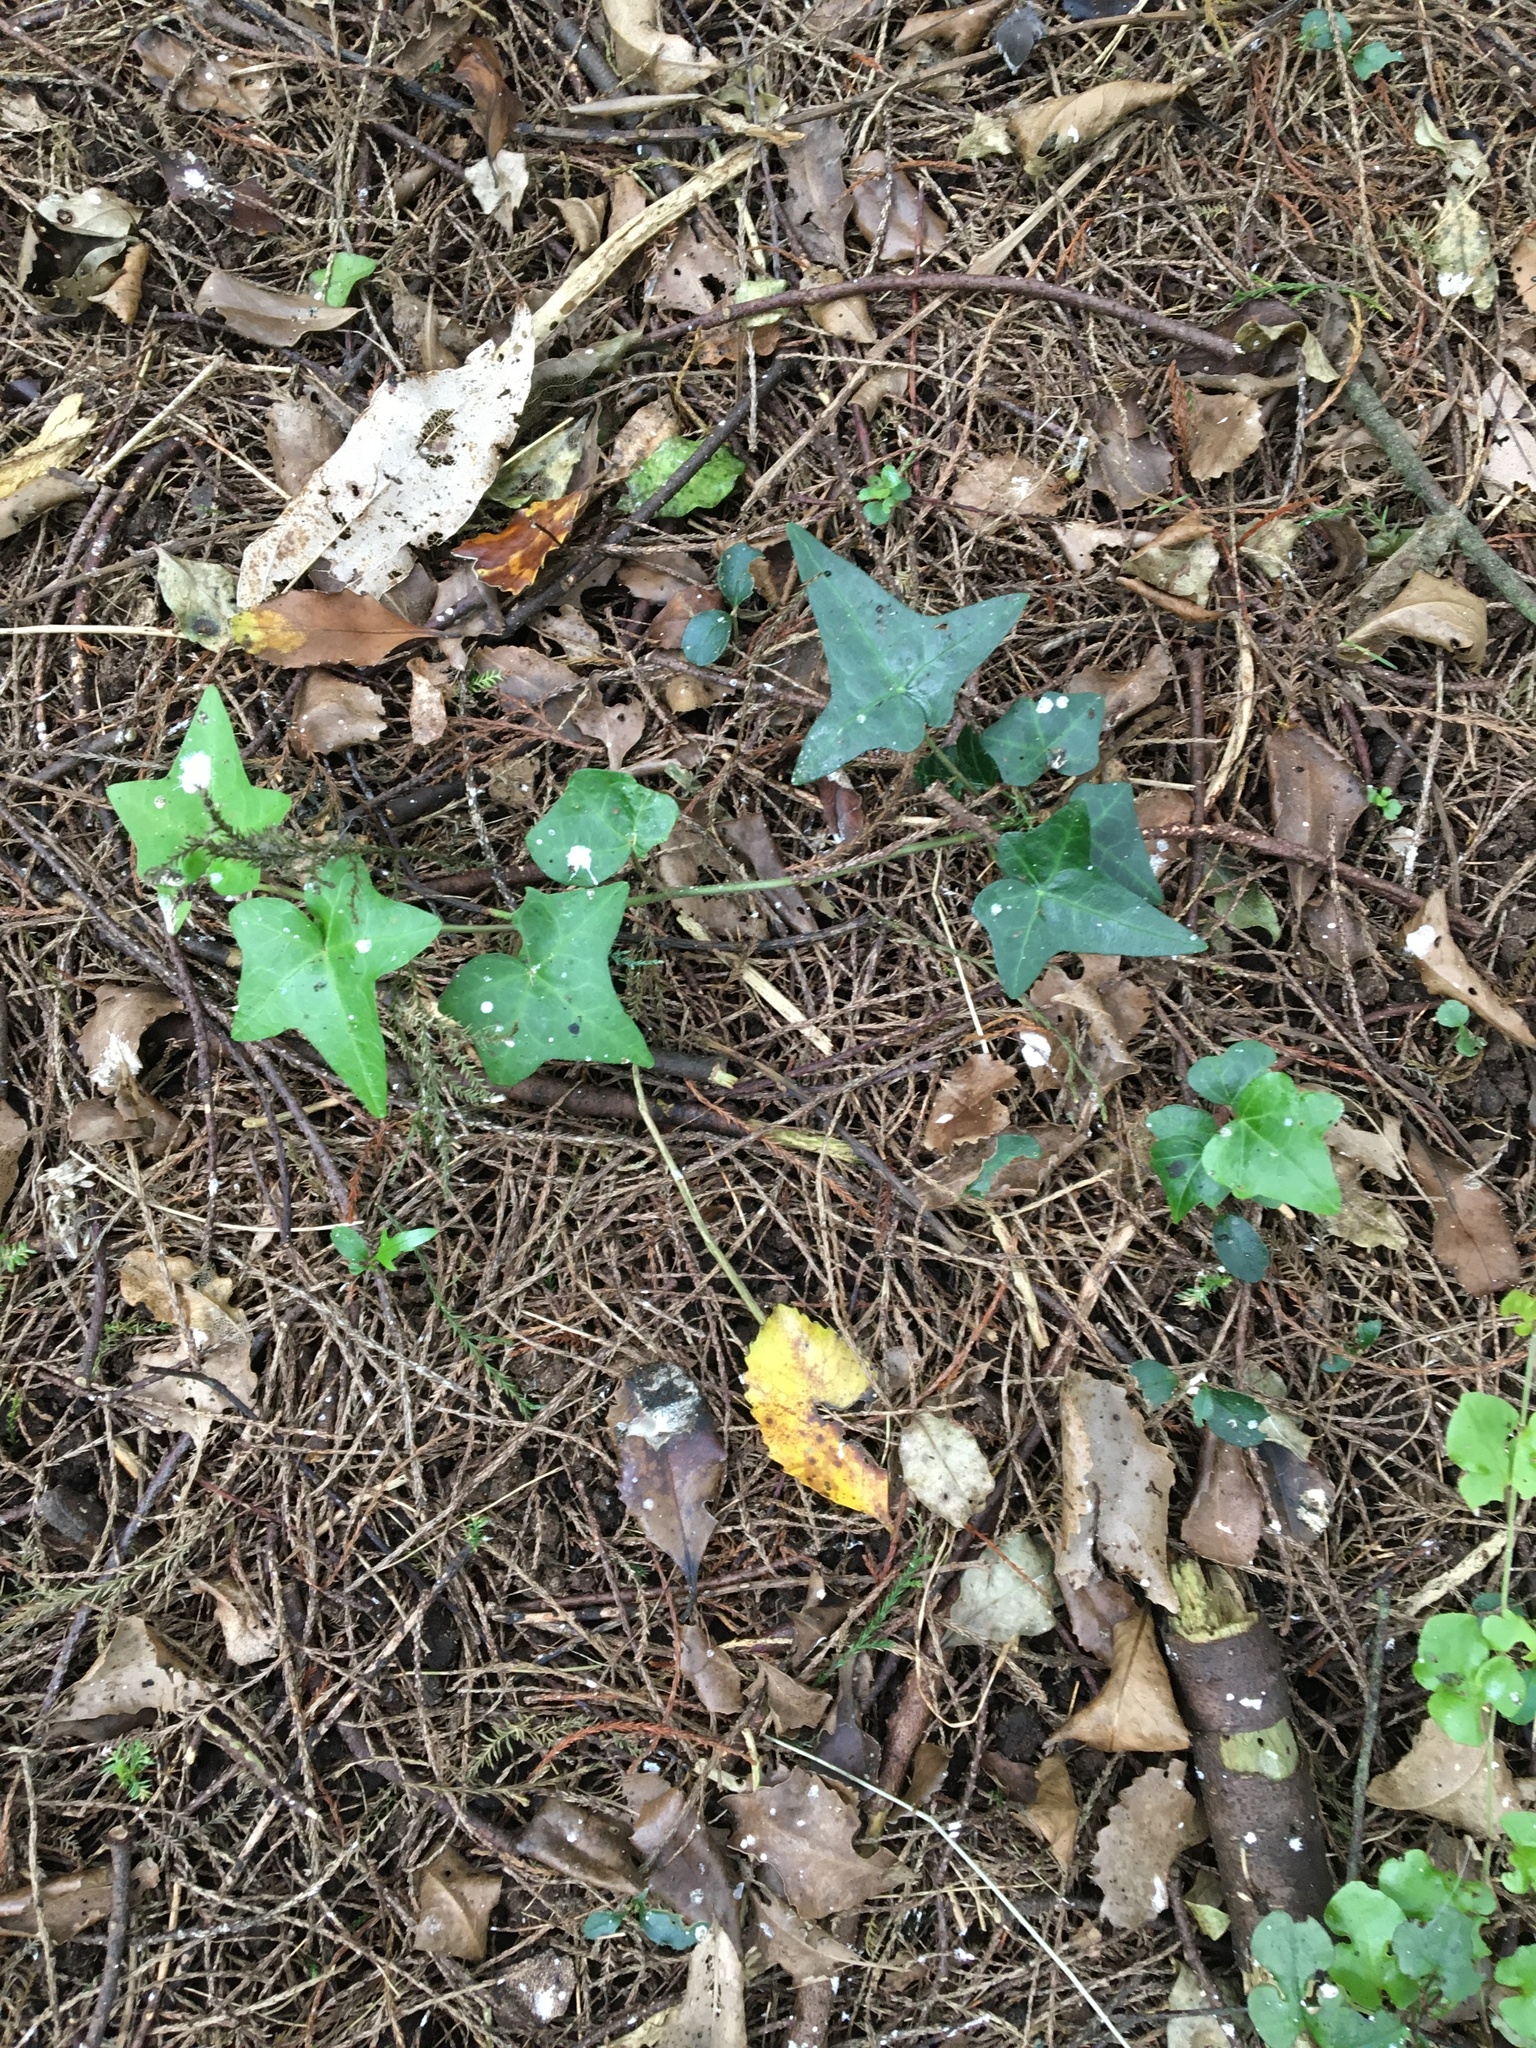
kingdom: Plantae
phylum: Tracheophyta
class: Magnoliopsida
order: Apiales
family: Araliaceae
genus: Hedera
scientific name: Hedera helix
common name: Ivy
